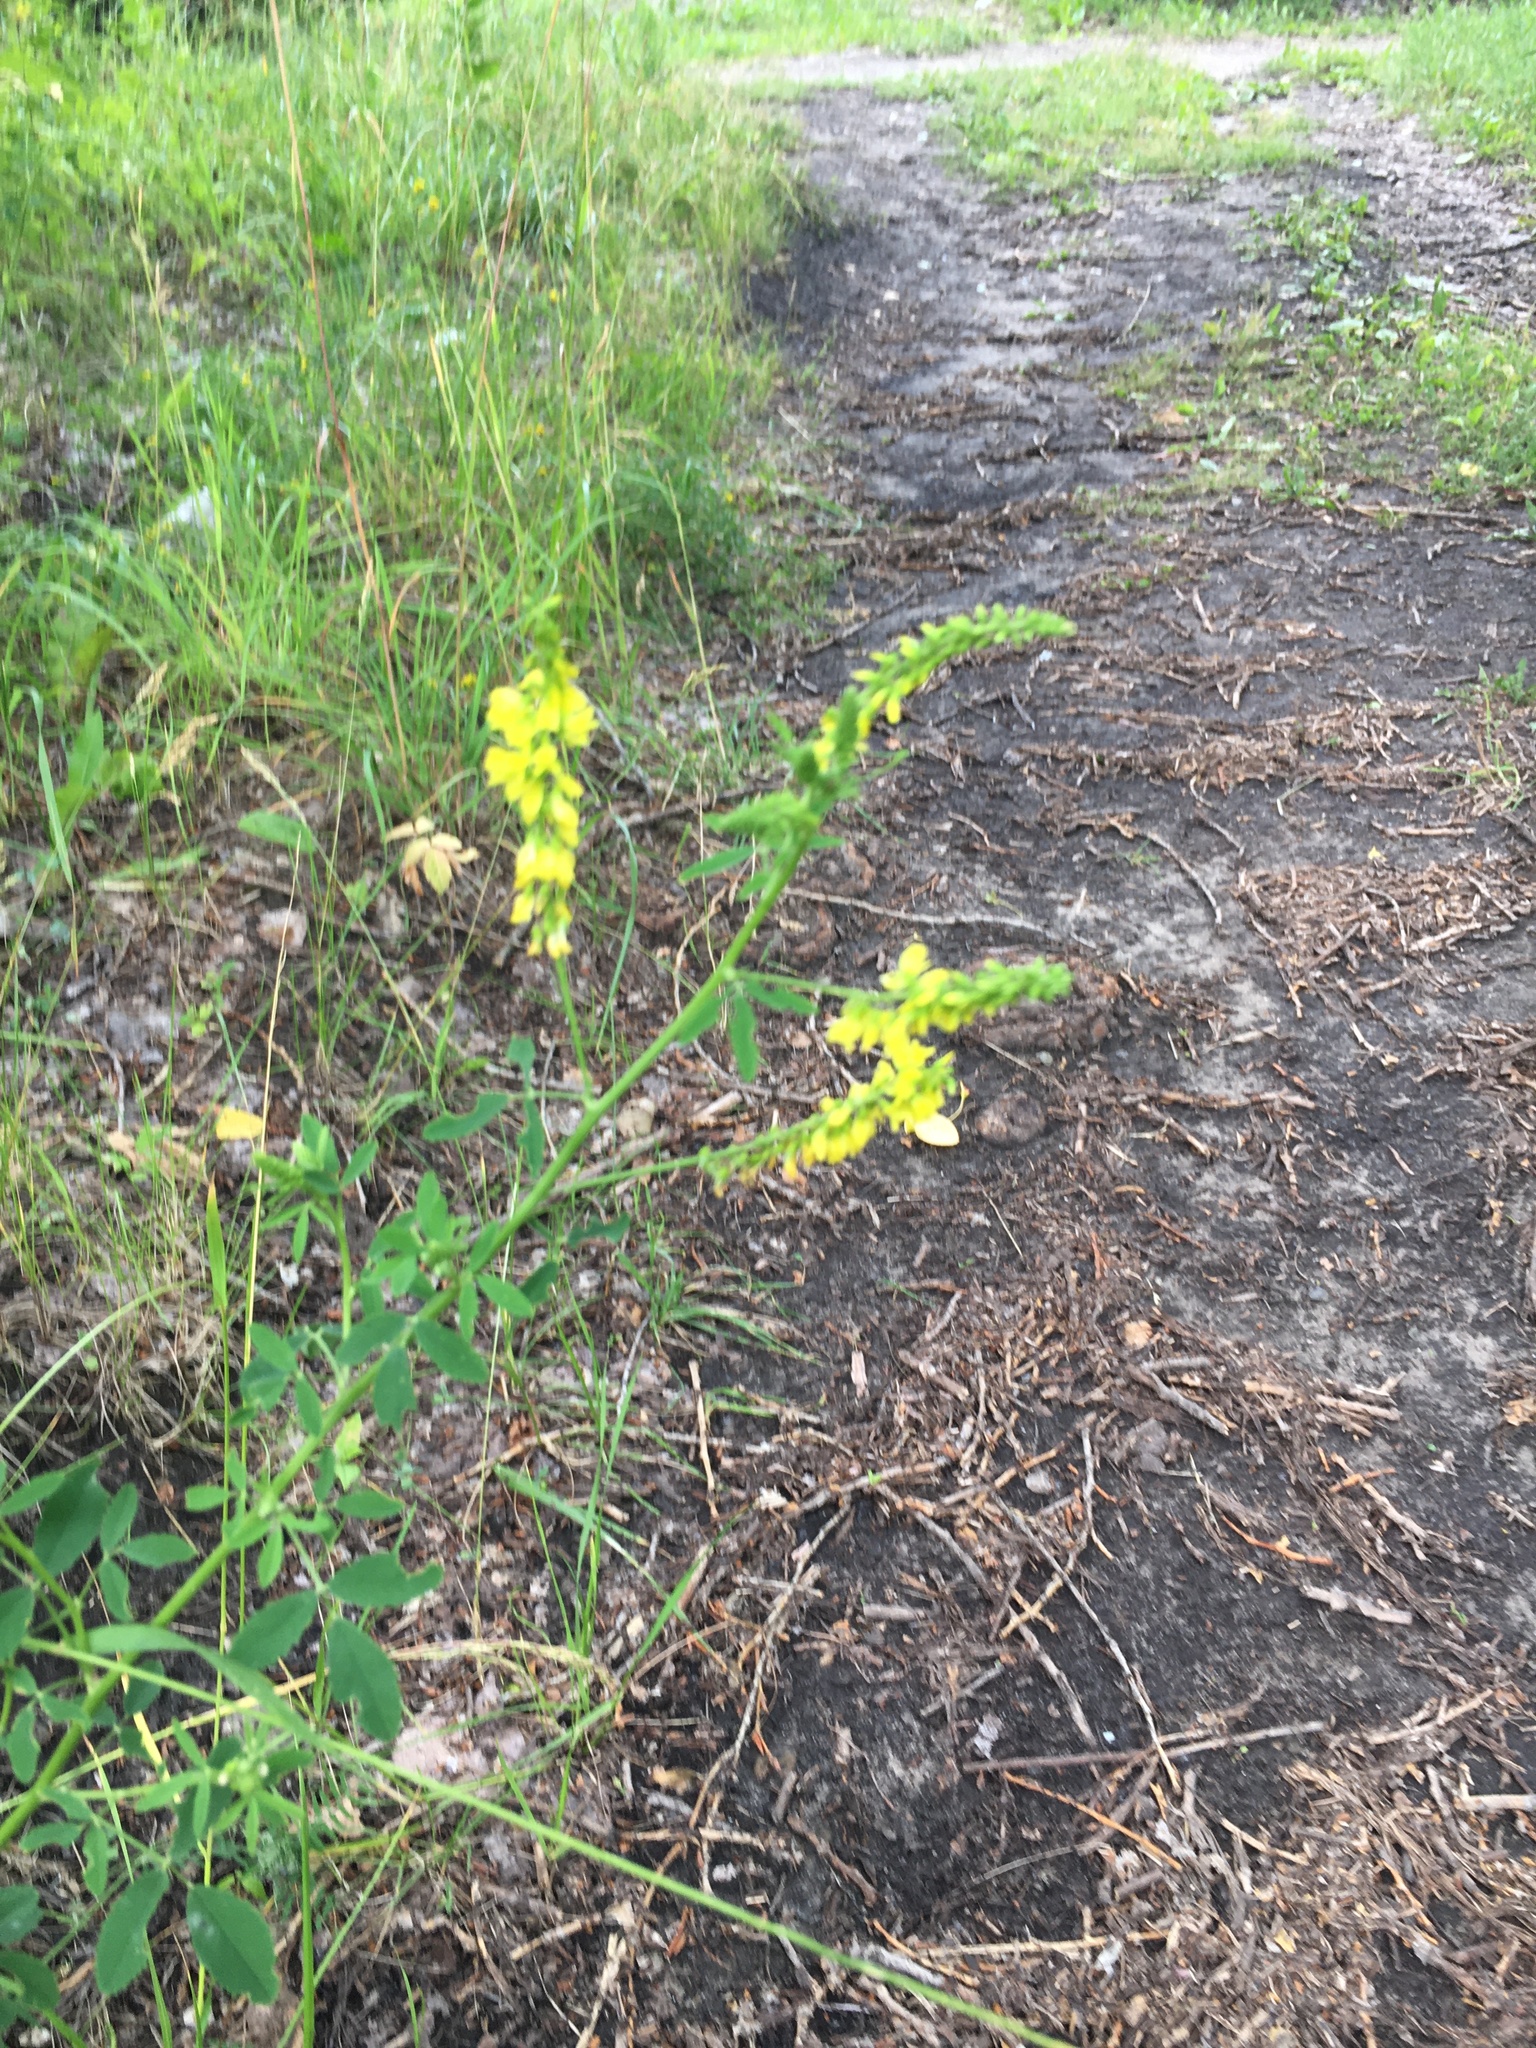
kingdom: Plantae
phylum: Tracheophyta
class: Magnoliopsida
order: Fabales
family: Fabaceae
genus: Melilotus
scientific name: Melilotus officinalis
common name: Sweetclover
